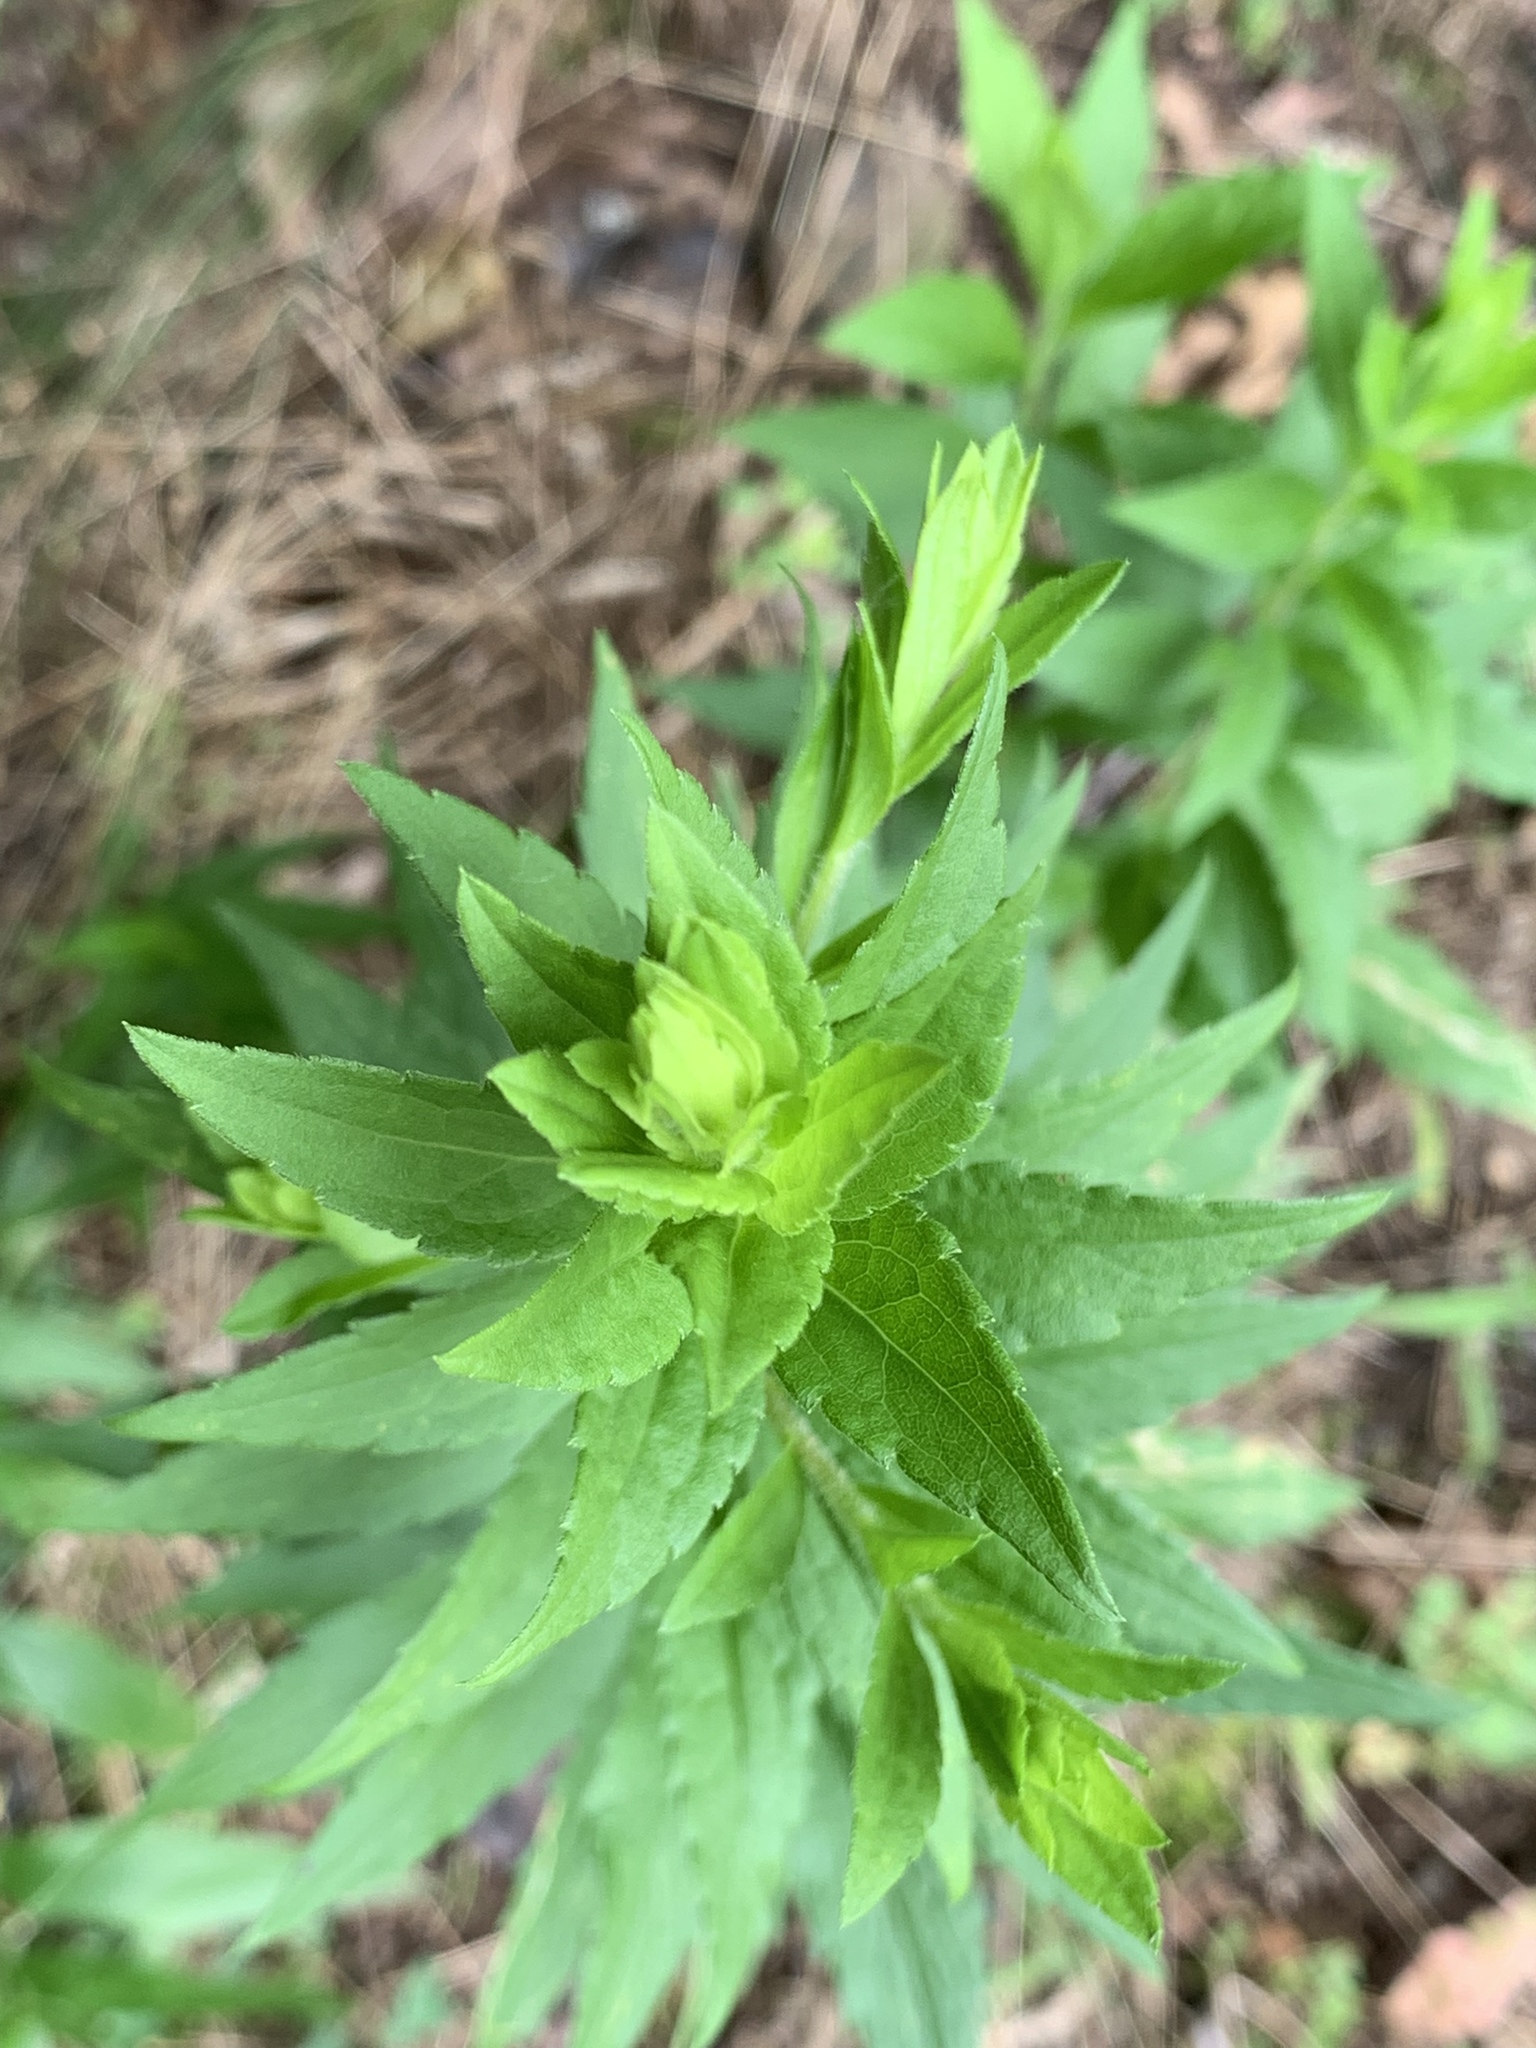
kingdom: Plantae
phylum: Tracheophyta
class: Magnoliopsida
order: Asterales
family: Asteraceae
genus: Solidago
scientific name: Solidago rugosa
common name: Rough-stemmed goldenrod
